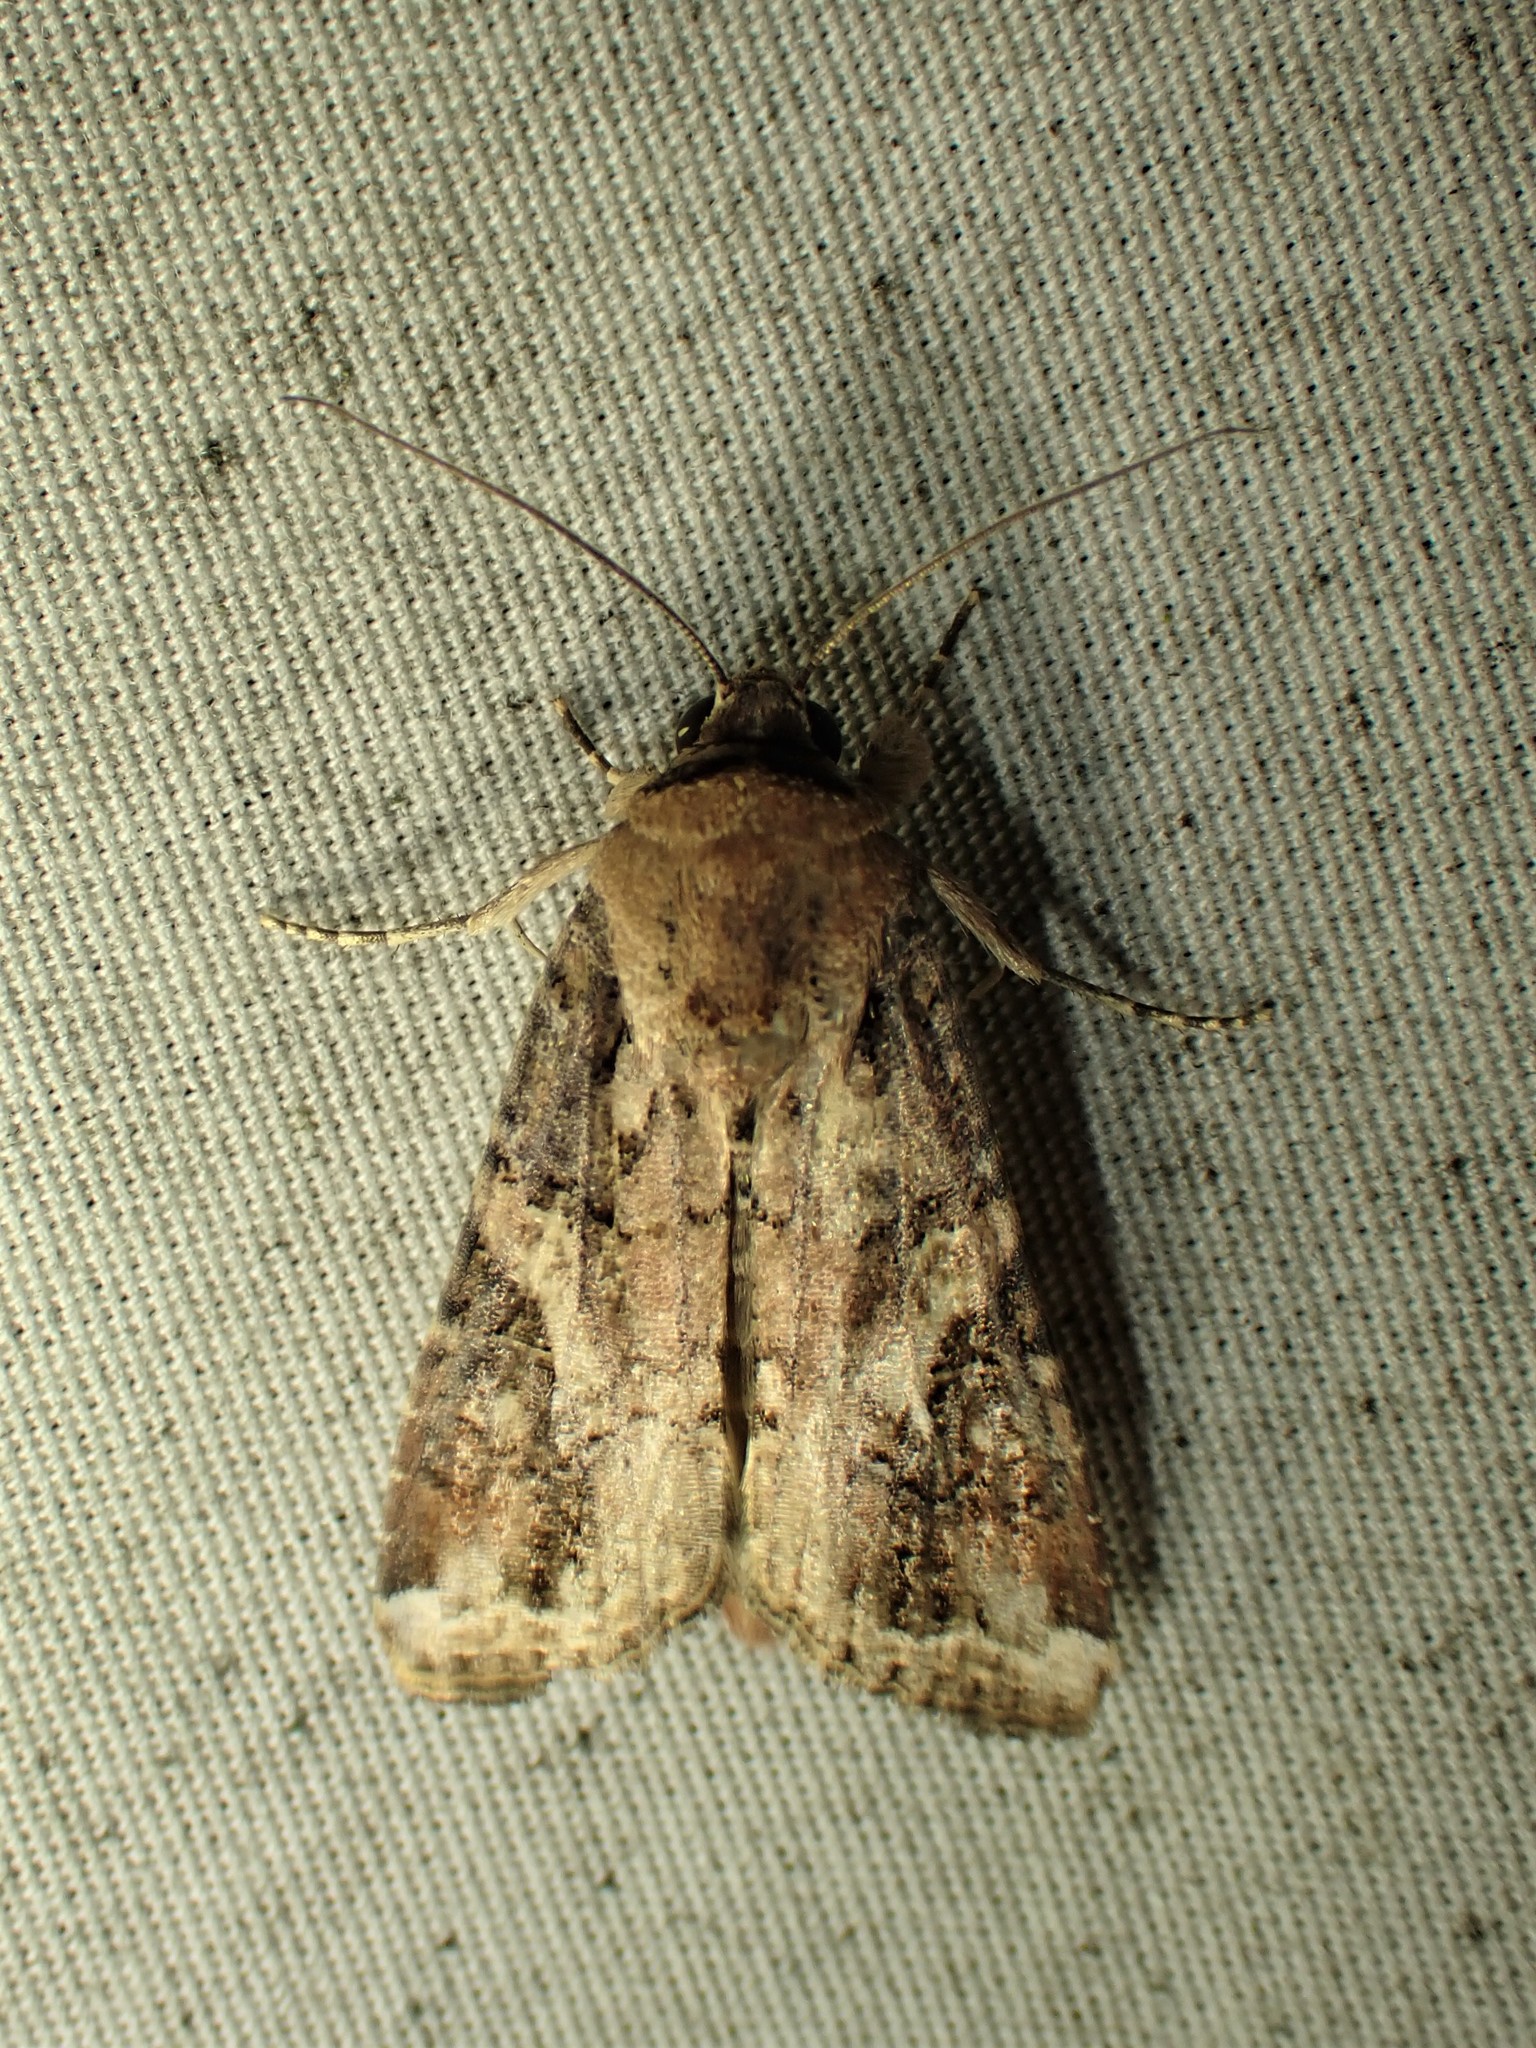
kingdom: Animalia
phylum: Arthropoda
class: Insecta
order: Lepidoptera
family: Noctuidae
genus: Spodoptera
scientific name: Spodoptera frugiperda
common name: Fall armyworm
